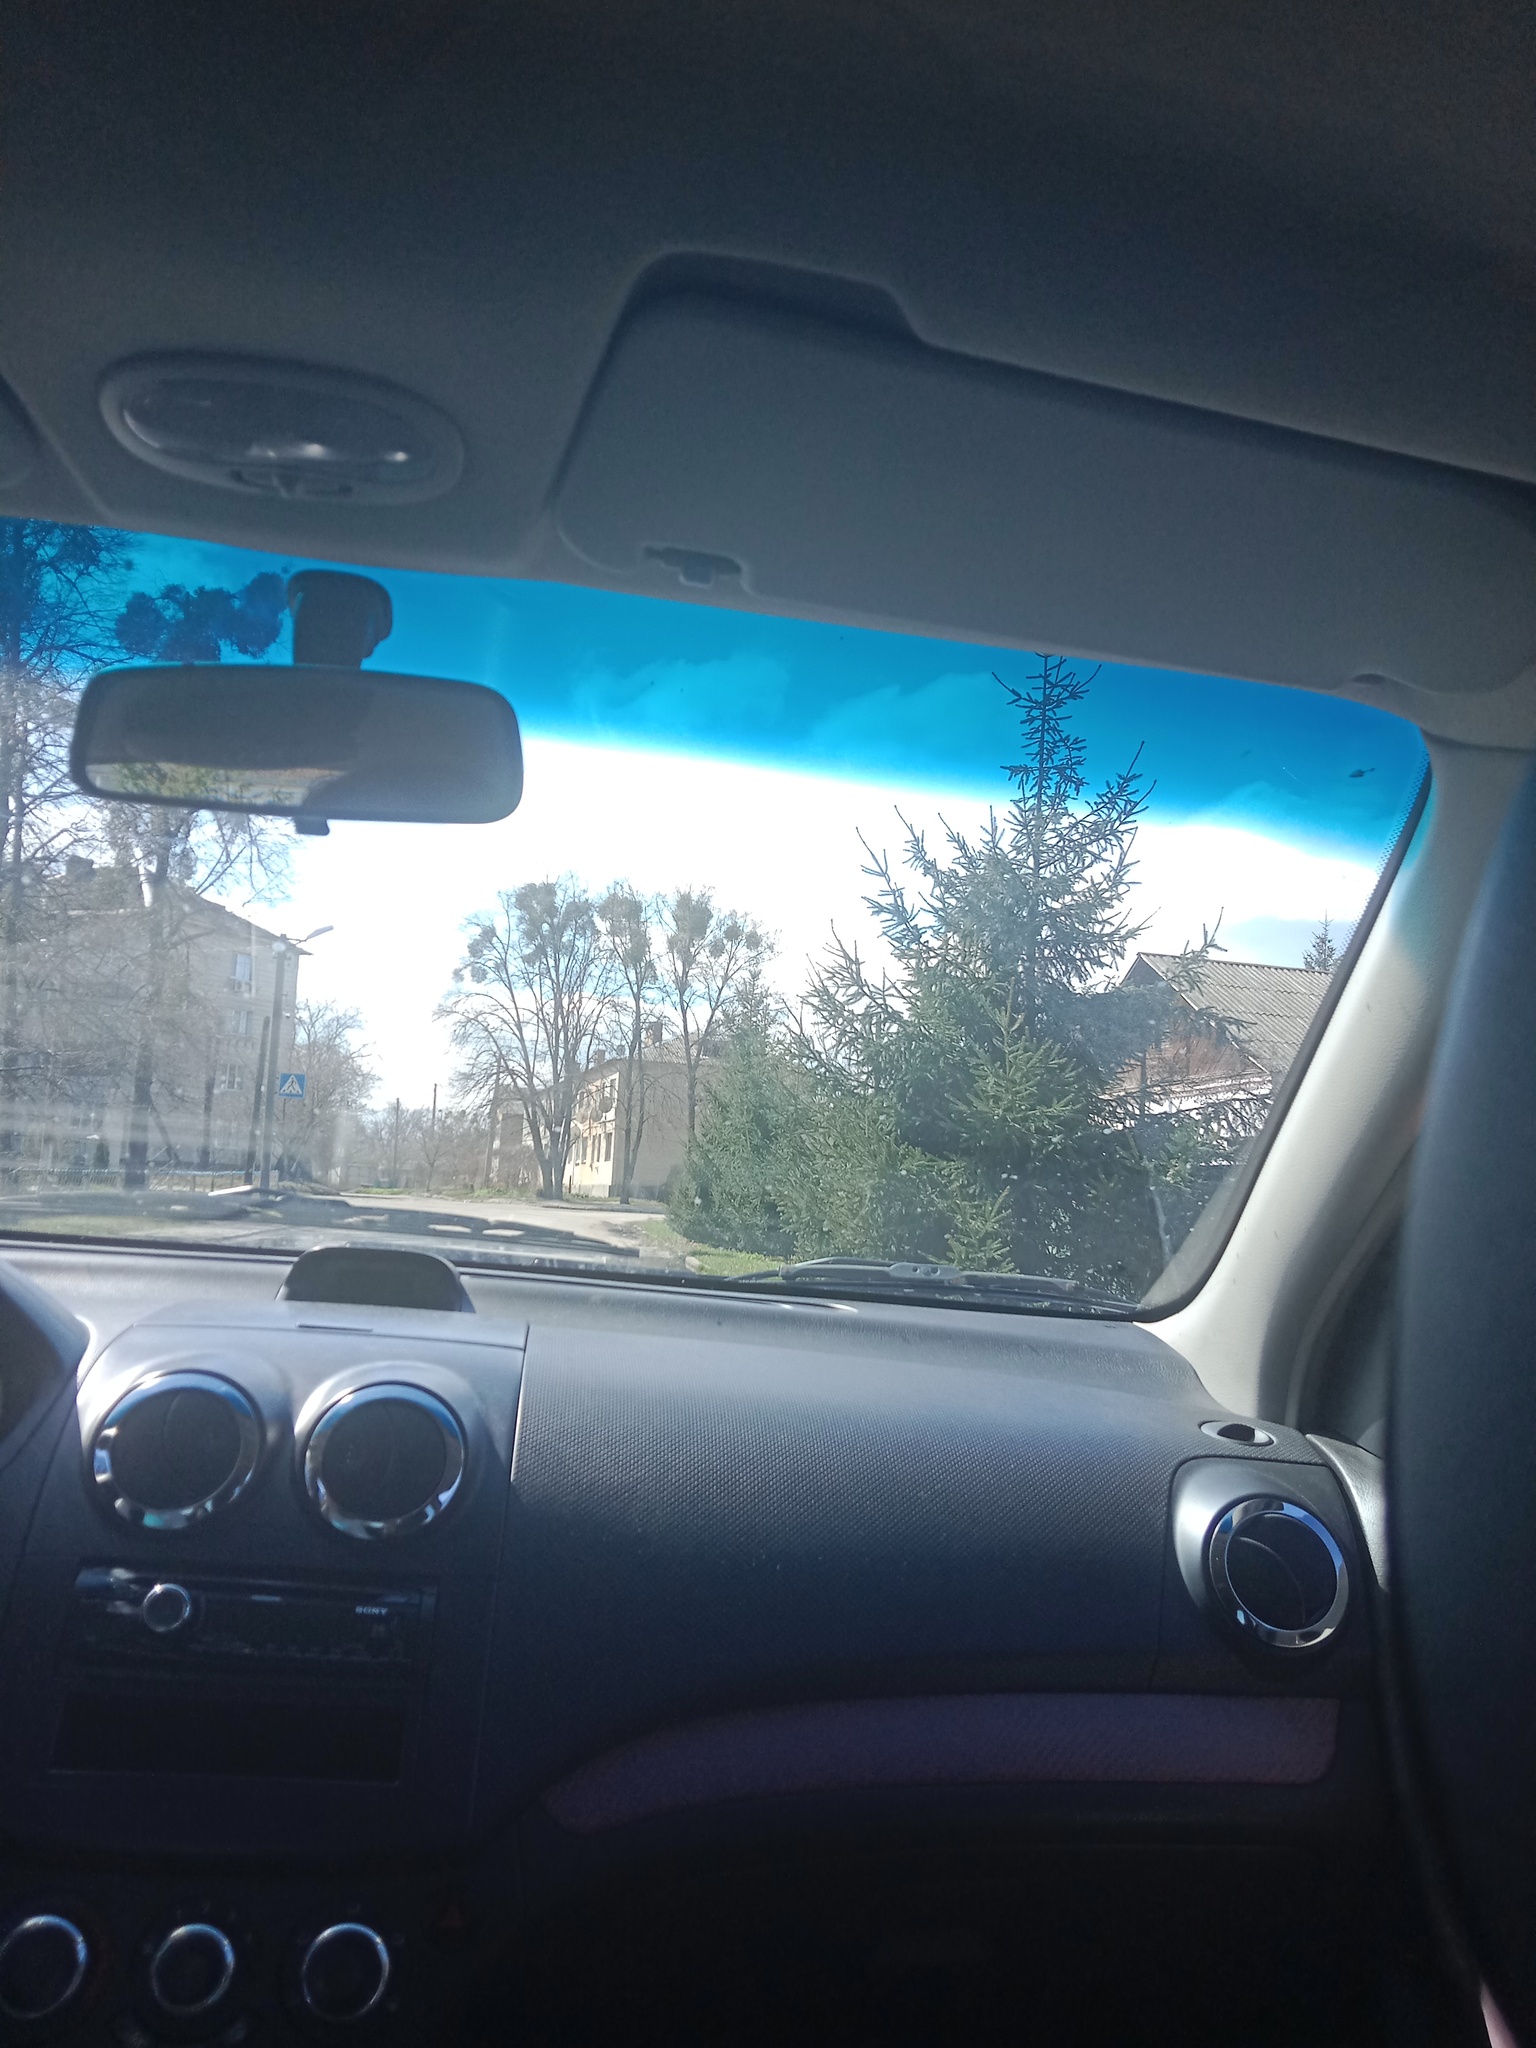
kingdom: Plantae
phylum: Tracheophyta
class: Magnoliopsida
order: Santalales
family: Viscaceae
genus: Viscum
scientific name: Viscum album
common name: Mistletoe
